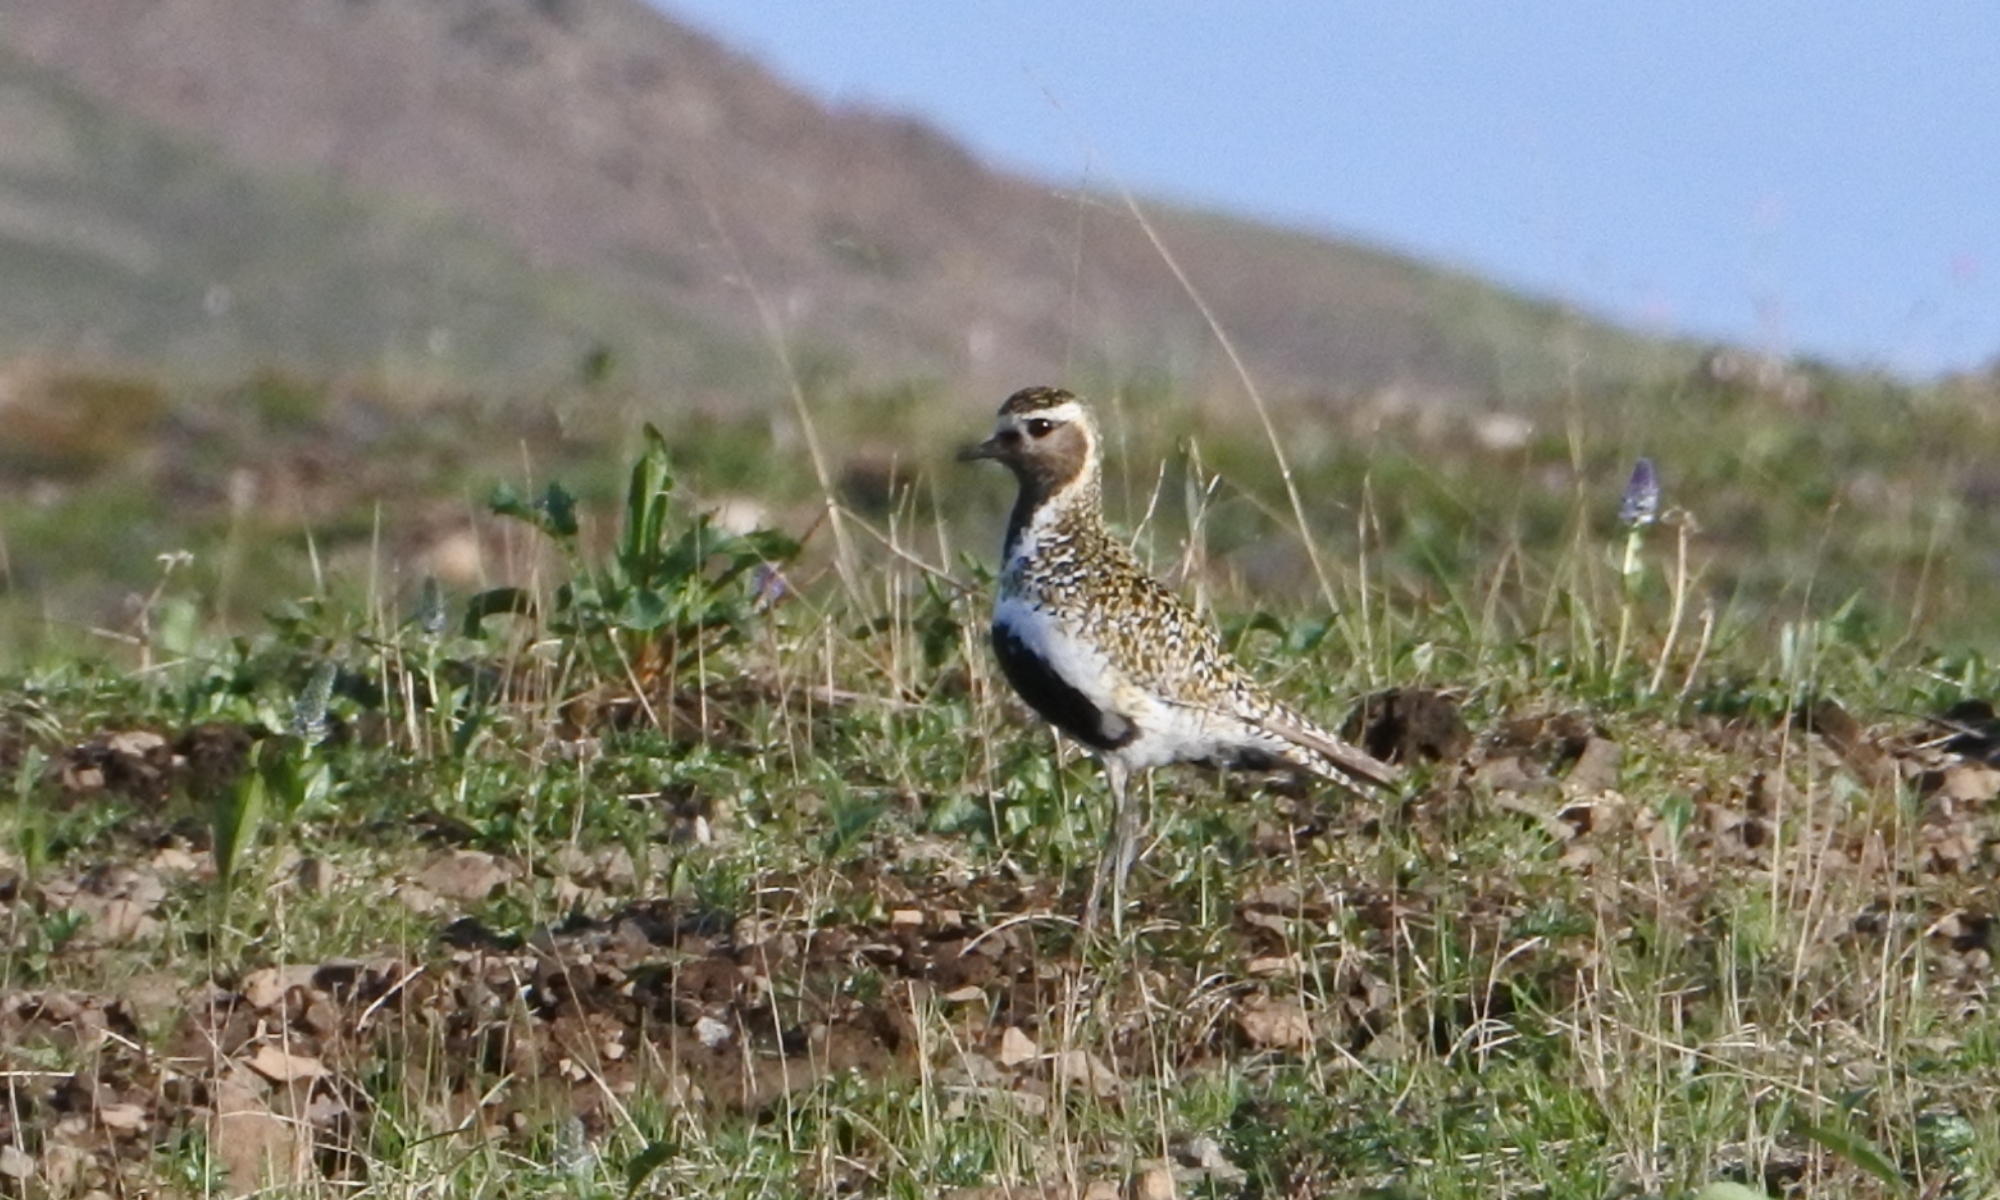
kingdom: Animalia
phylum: Chordata
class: Aves
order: Charadriiformes
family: Charadriidae
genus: Pluvialis
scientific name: Pluvialis apricaria
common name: European golden plover
